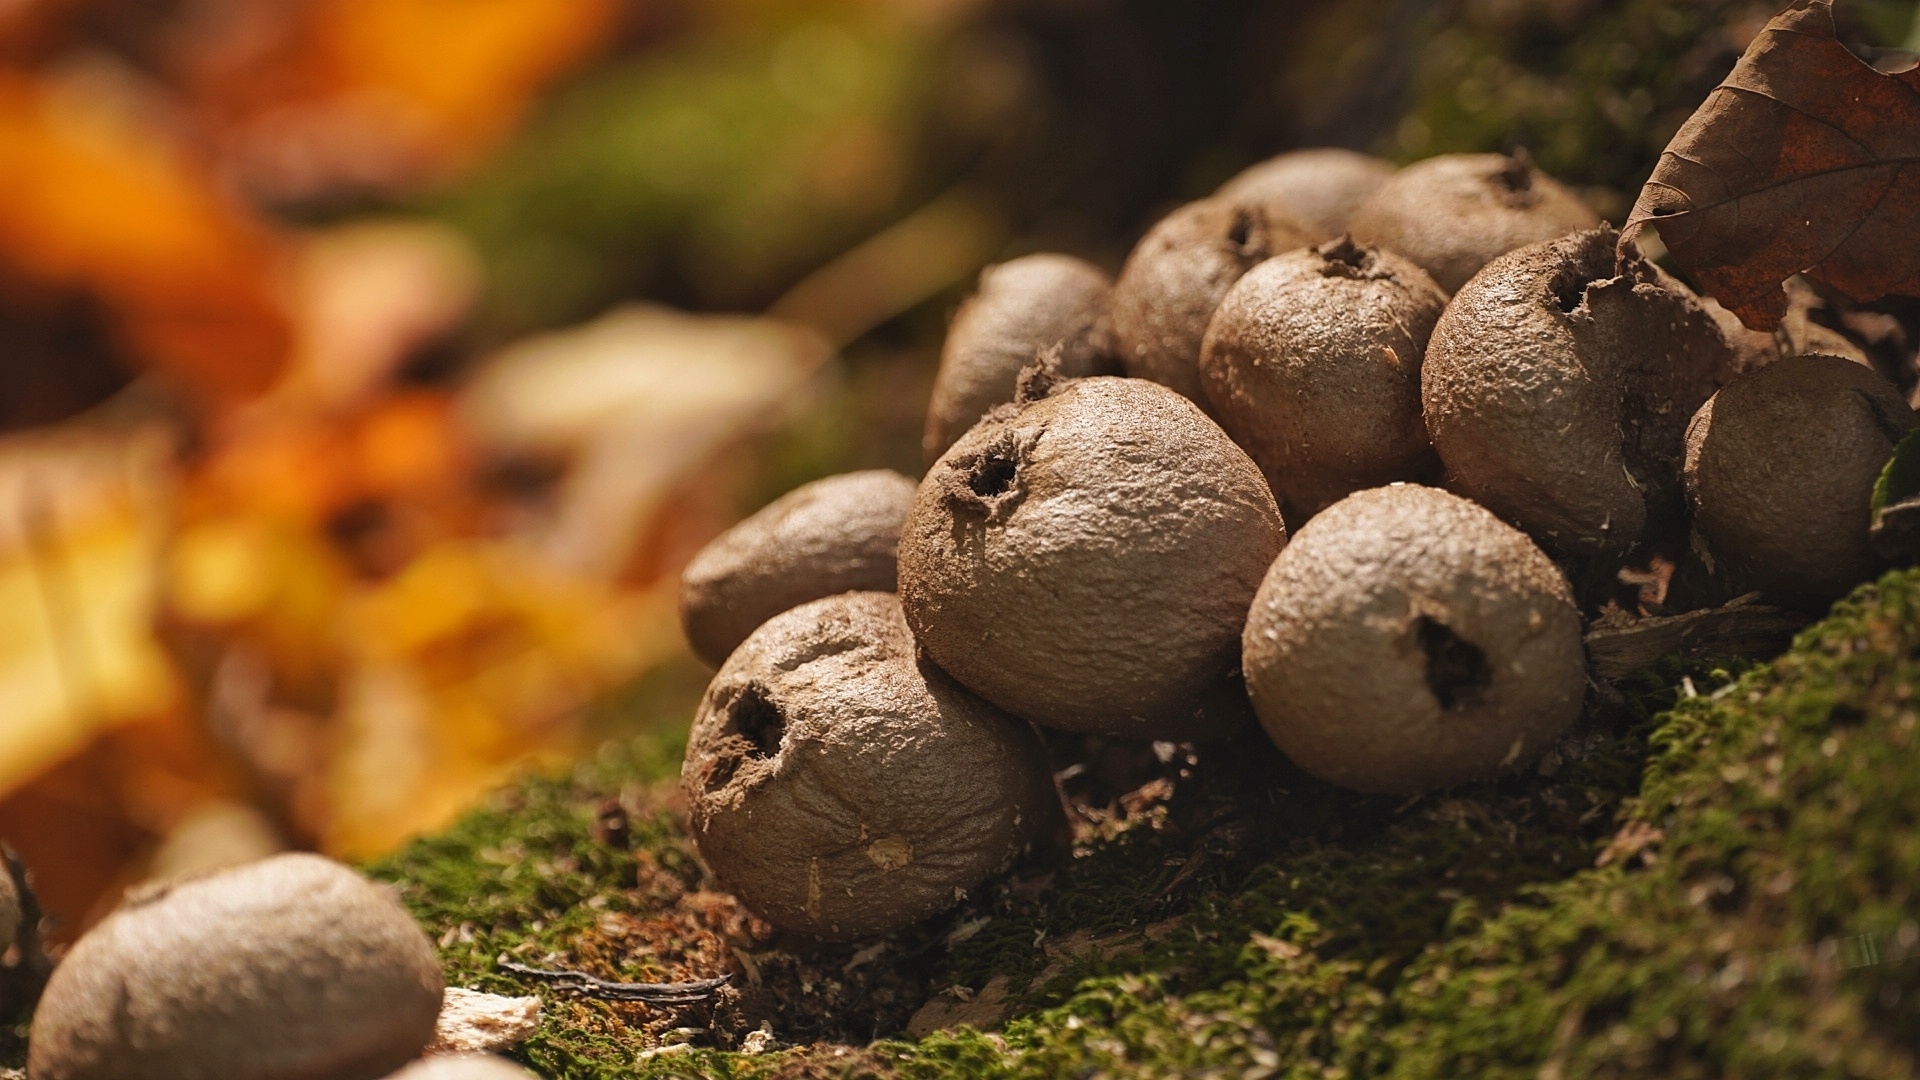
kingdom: Fungi
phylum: Basidiomycota
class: Agaricomycetes
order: Agaricales
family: Lycoperdaceae
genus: Apioperdon
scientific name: Apioperdon pyriforme
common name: Pear-shaped puffball
